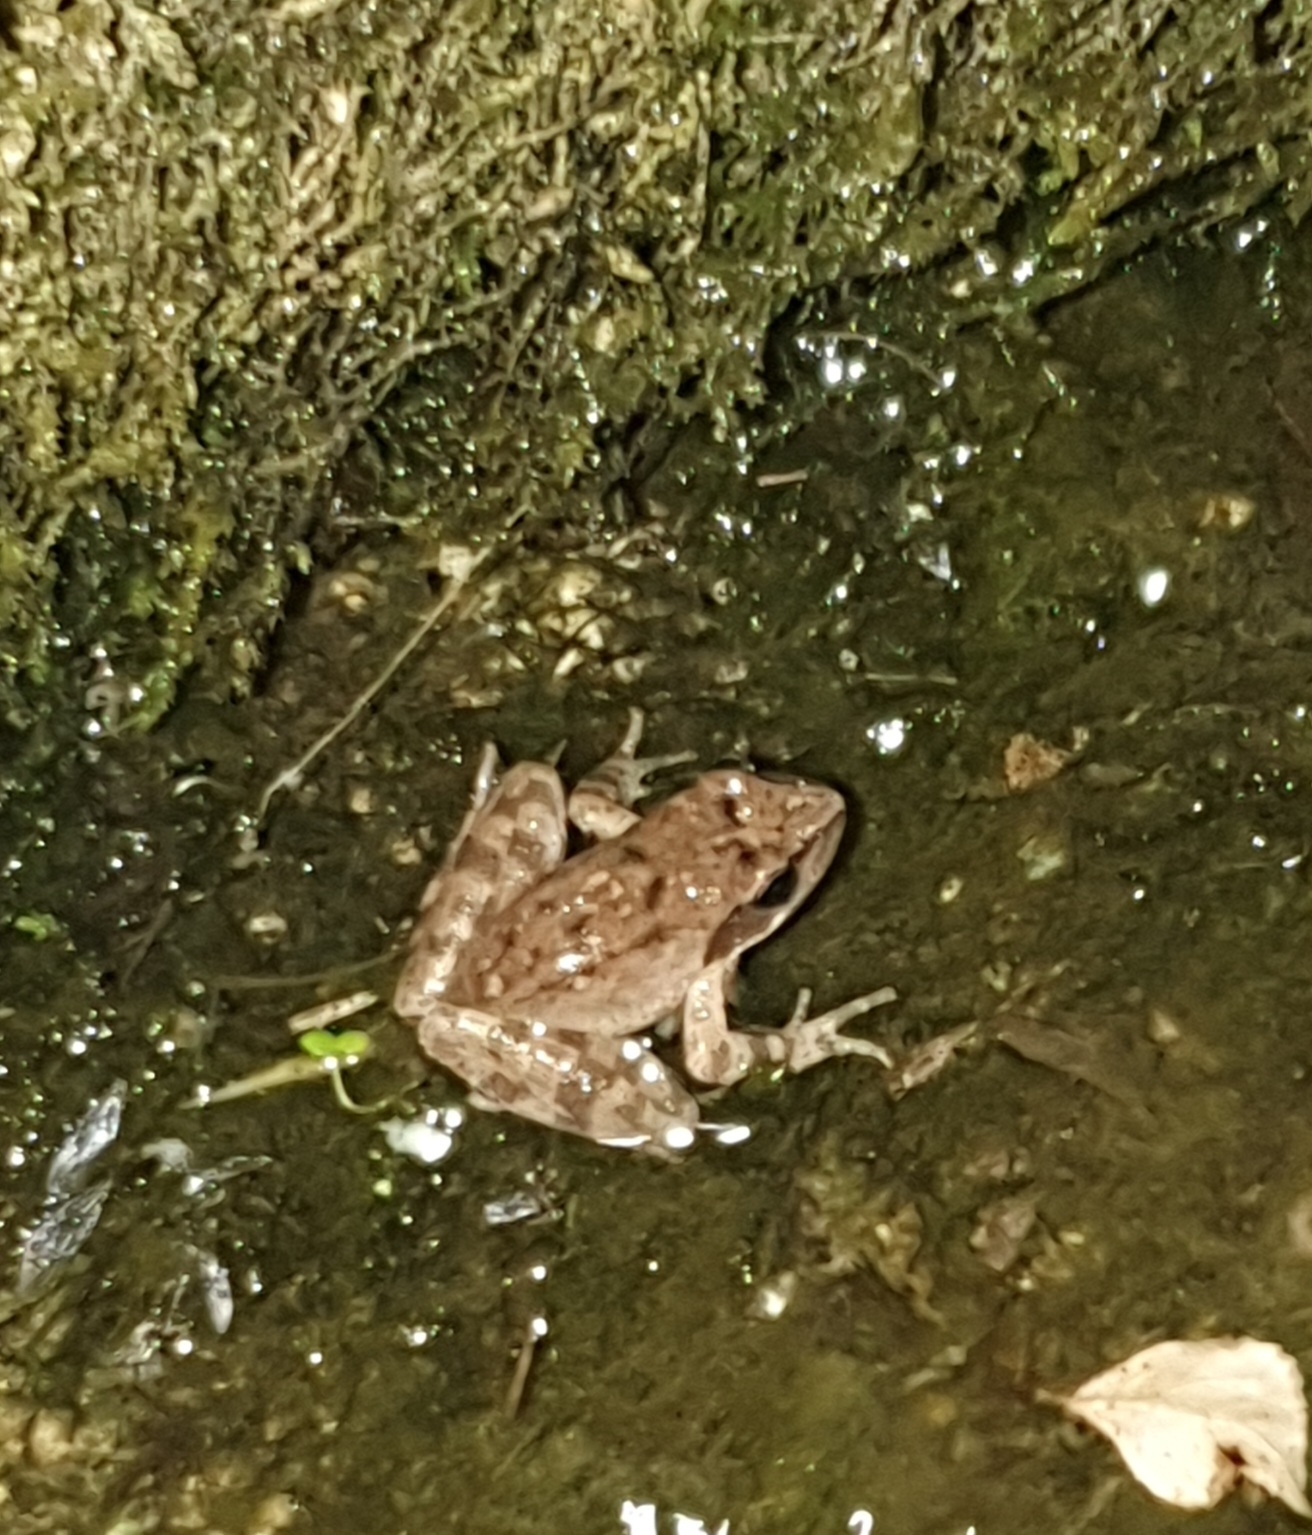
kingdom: Animalia
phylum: Chordata
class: Amphibia
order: Anura
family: Ranidae
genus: Rana
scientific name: Rana italica
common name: Italian stream frog
